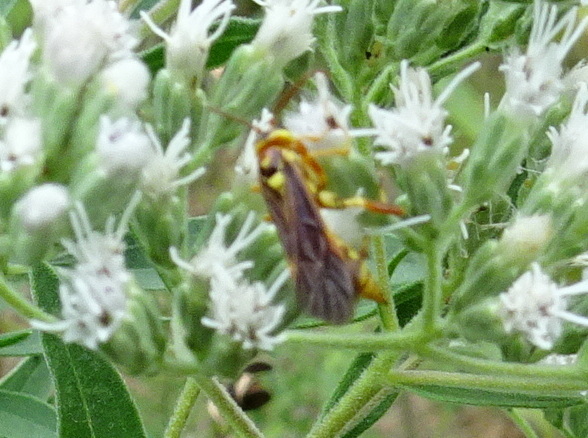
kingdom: Animalia
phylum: Arthropoda
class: Insecta
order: Hymenoptera
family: Ichneumonidae
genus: Ceratogastra
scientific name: Ceratogastra ornata
